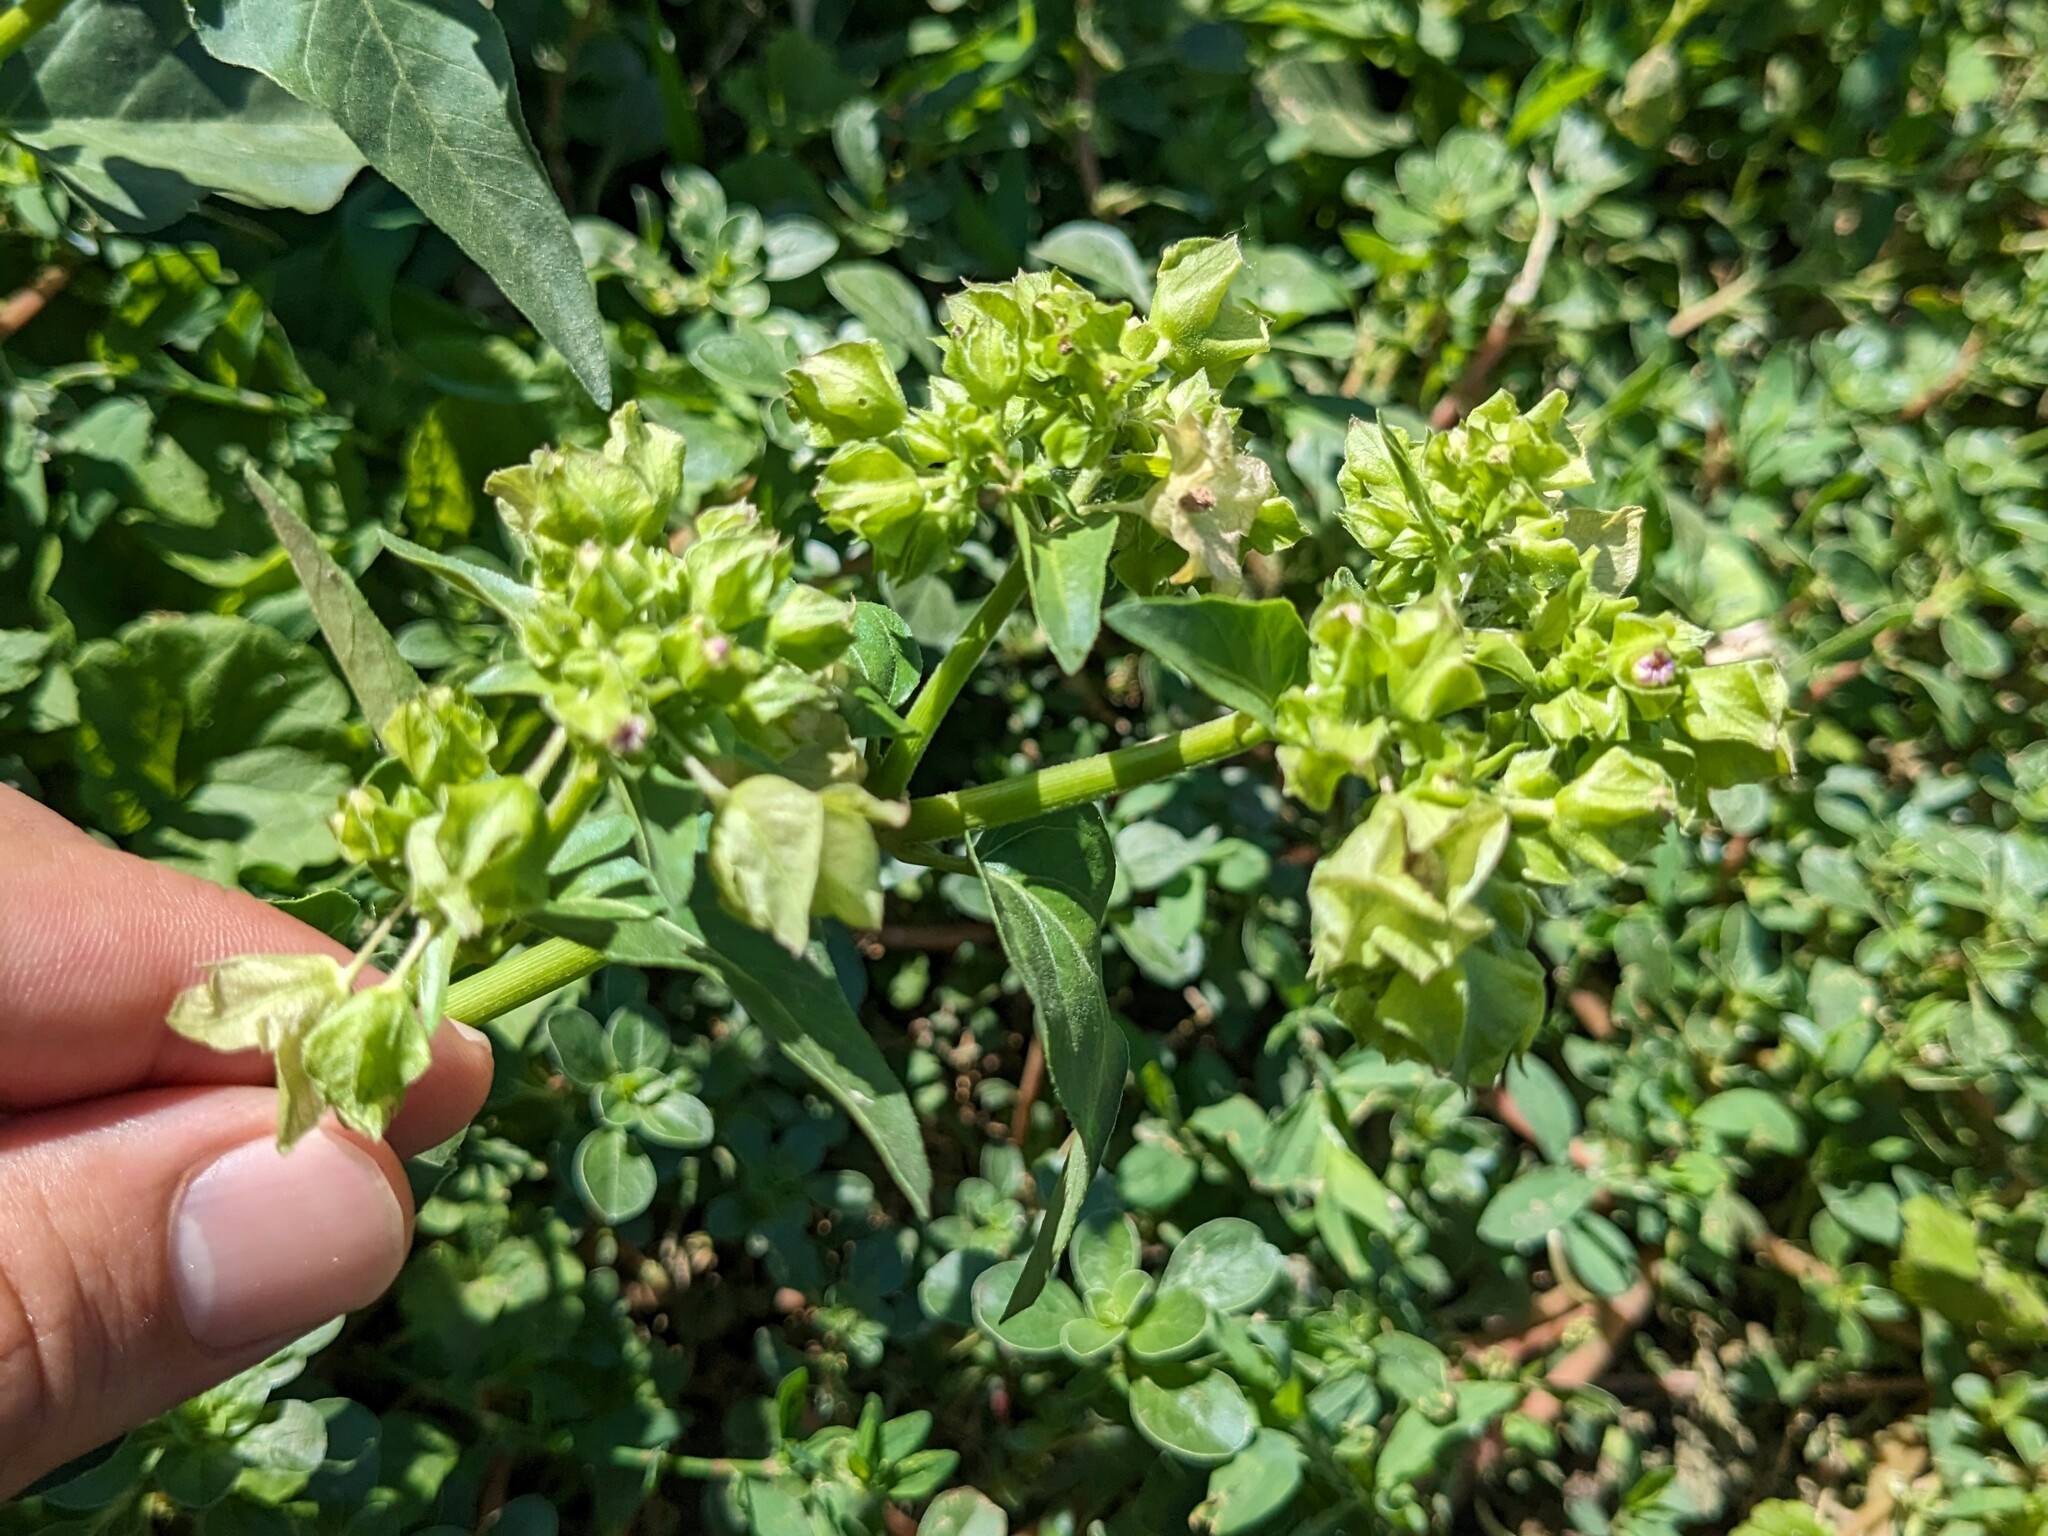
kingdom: Plantae
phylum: Tracheophyta
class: Magnoliopsida
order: Caryophyllales
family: Nyctaginaceae
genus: Mirabilis
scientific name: Mirabilis nyctaginea
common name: Umbrella wort
